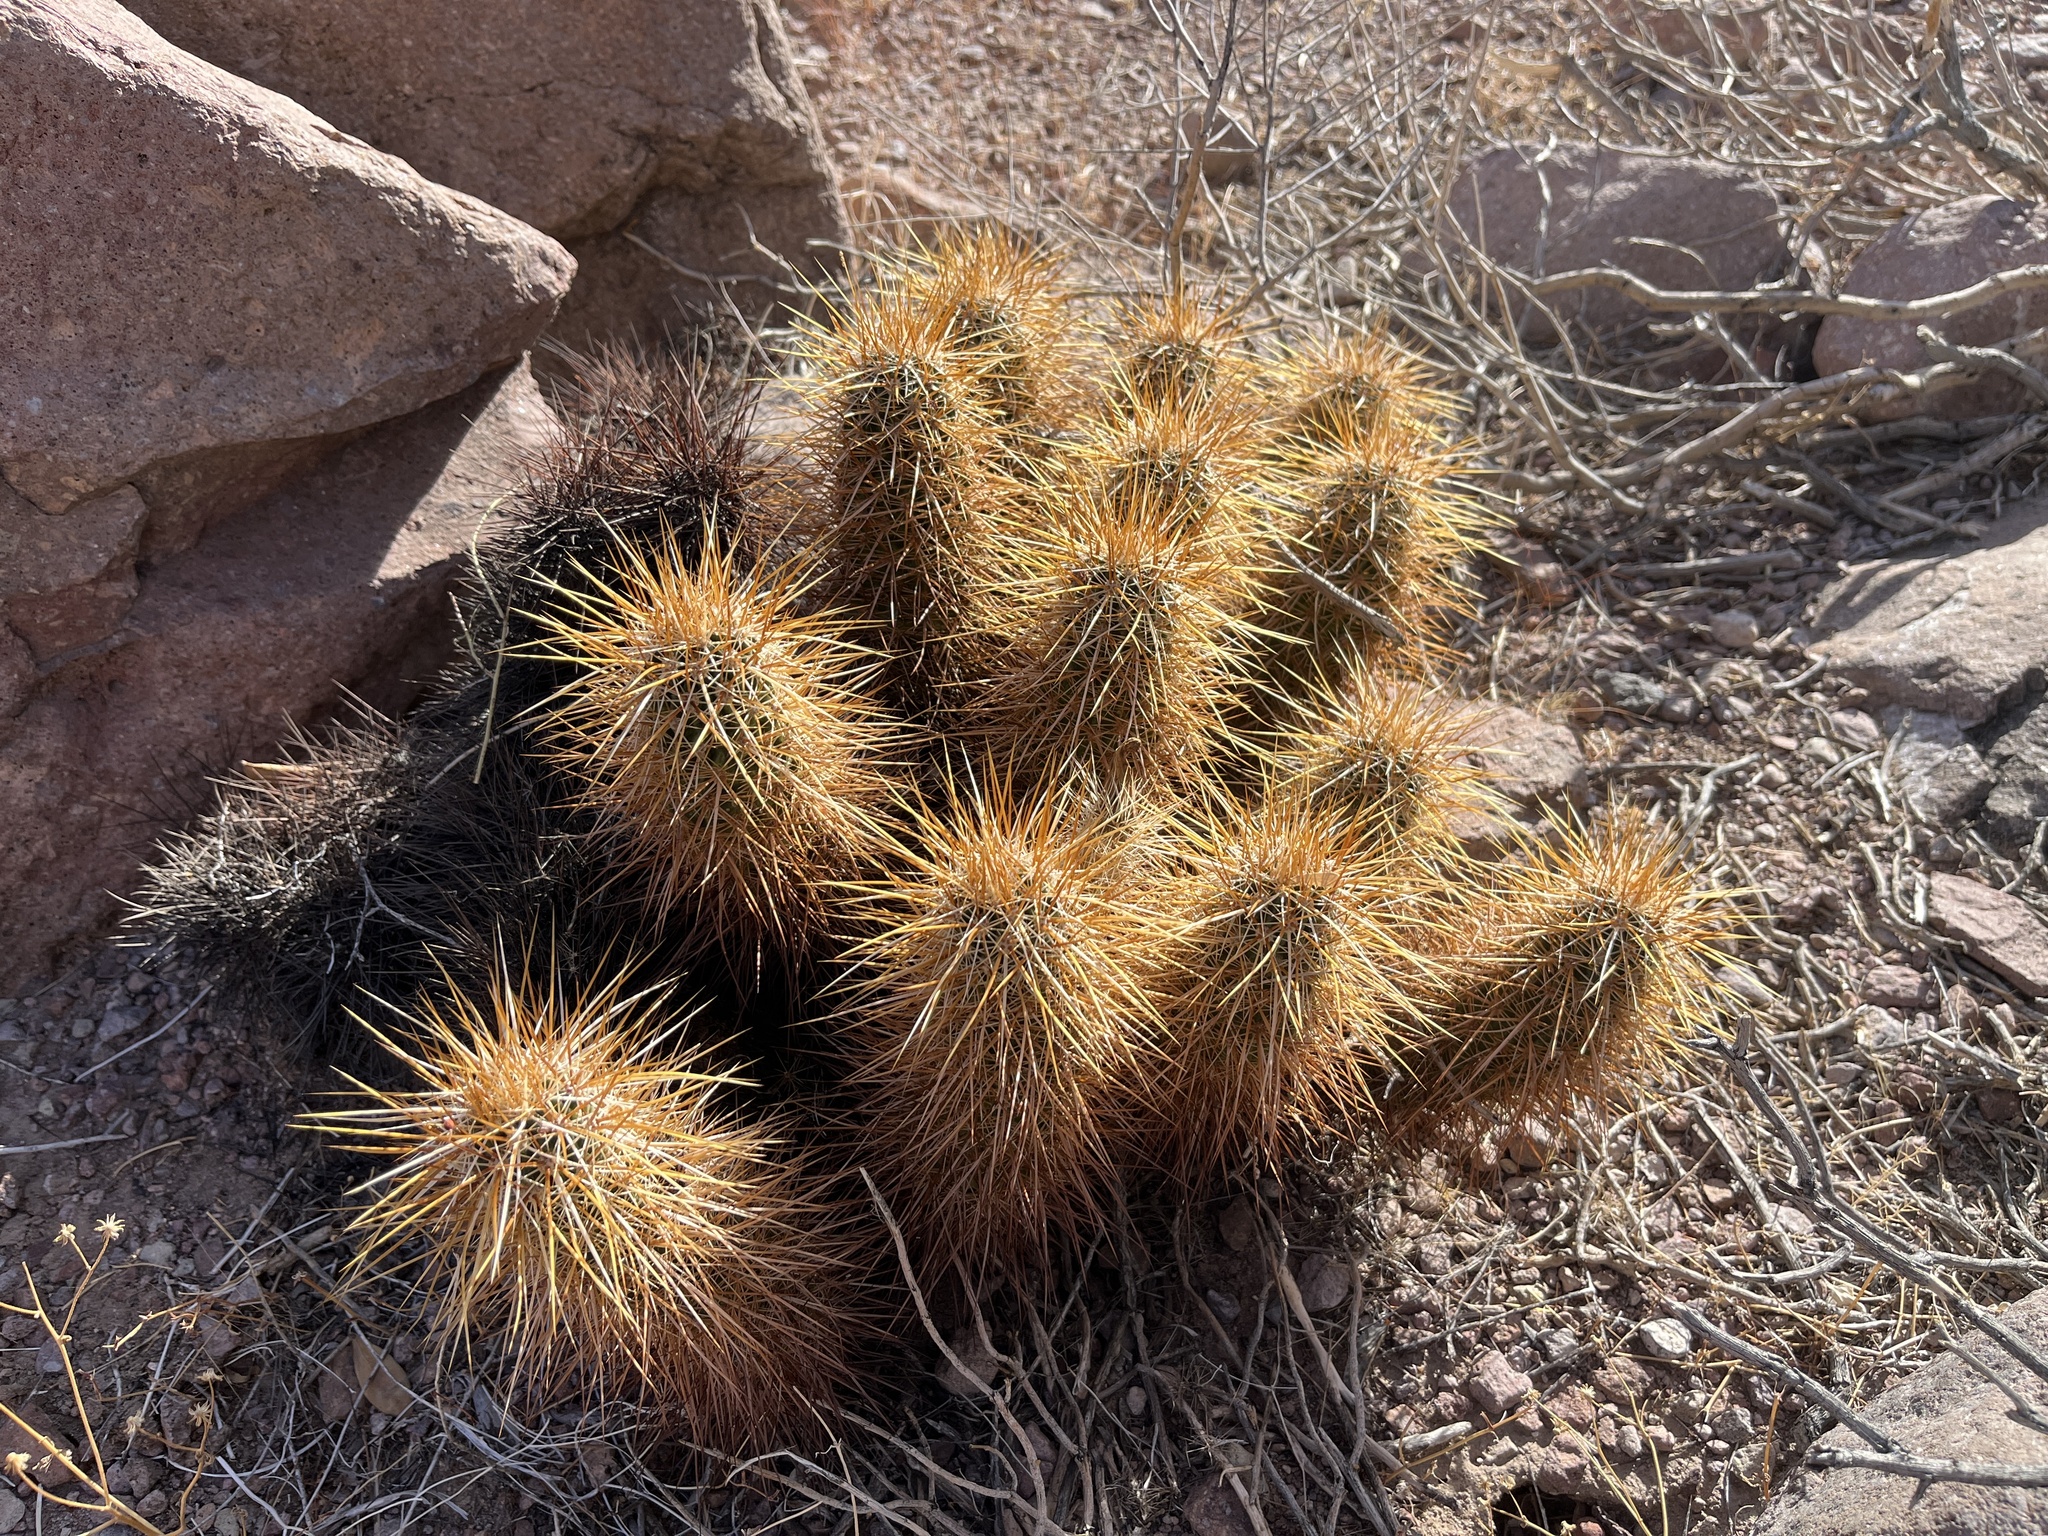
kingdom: Plantae
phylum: Tracheophyta
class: Magnoliopsida
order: Caryophyllales
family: Cactaceae
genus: Echinocereus
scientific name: Echinocereus engelmannii
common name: Engelmann's hedgehog cactus
